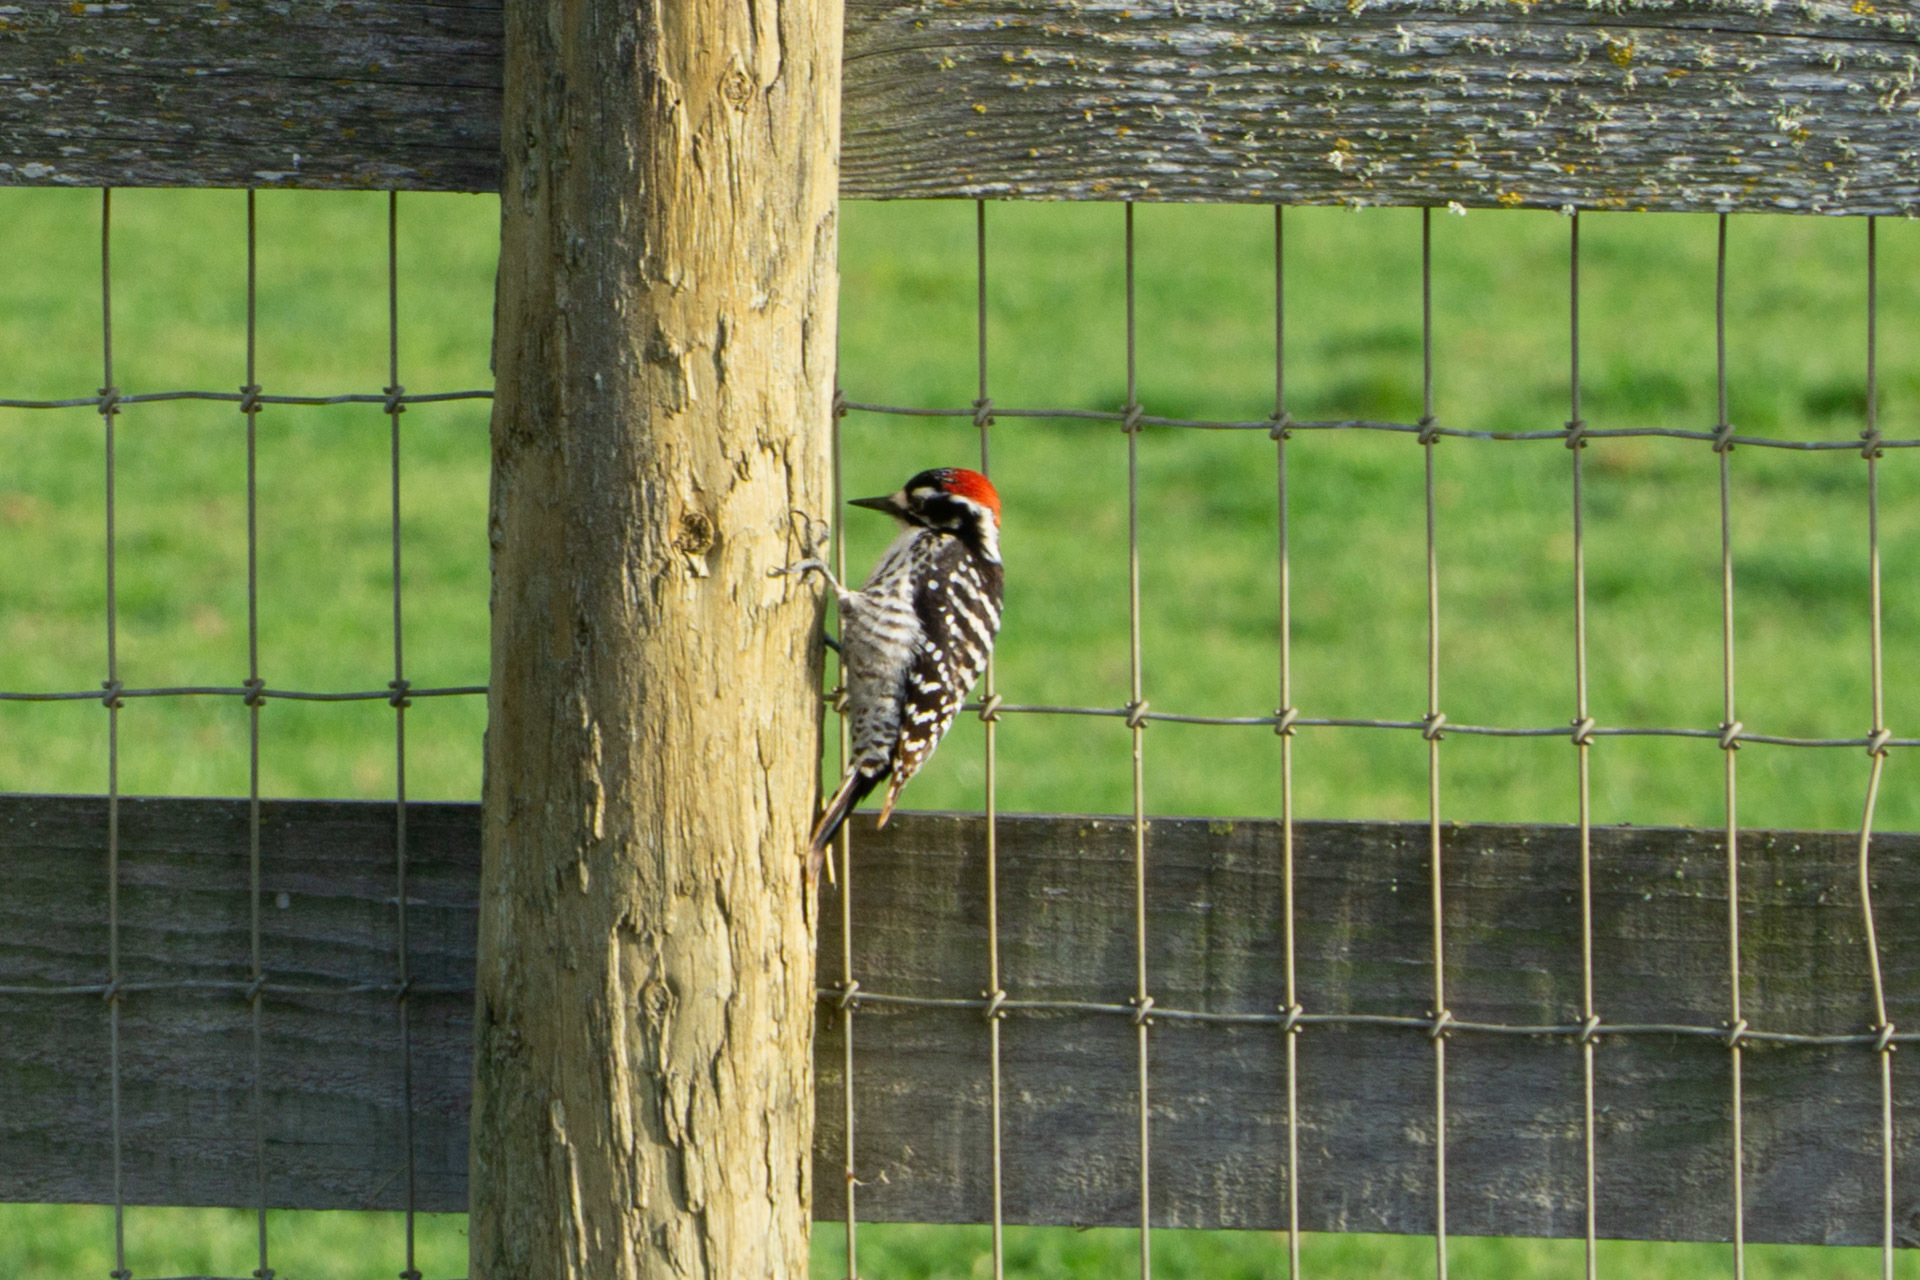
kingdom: Animalia
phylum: Chordata
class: Aves
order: Piciformes
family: Picidae
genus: Dryobates
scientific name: Dryobates nuttallii
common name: Nuttall's woodpecker
